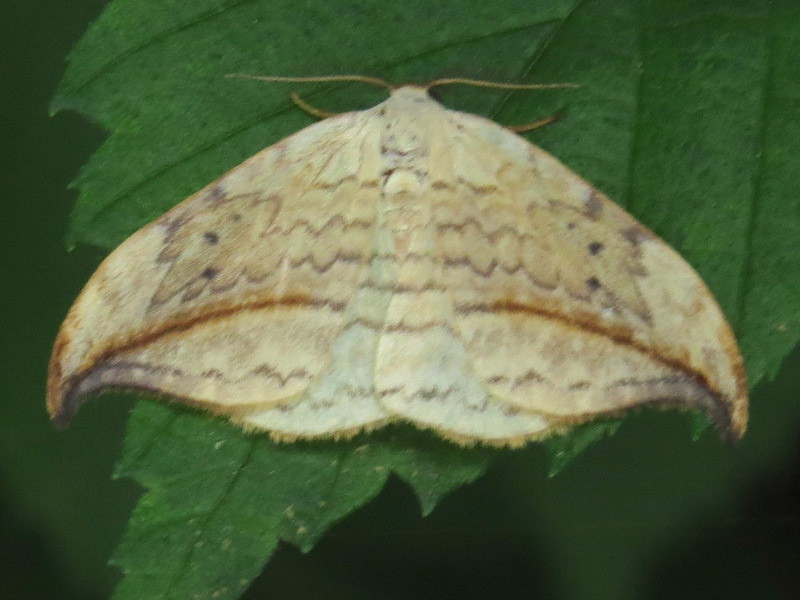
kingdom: Animalia
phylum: Arthropoda
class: Insecta
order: Lepidoptera
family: Drepanidae
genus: Drepana
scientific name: Drepana arcuata
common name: Arched hooktip moth
